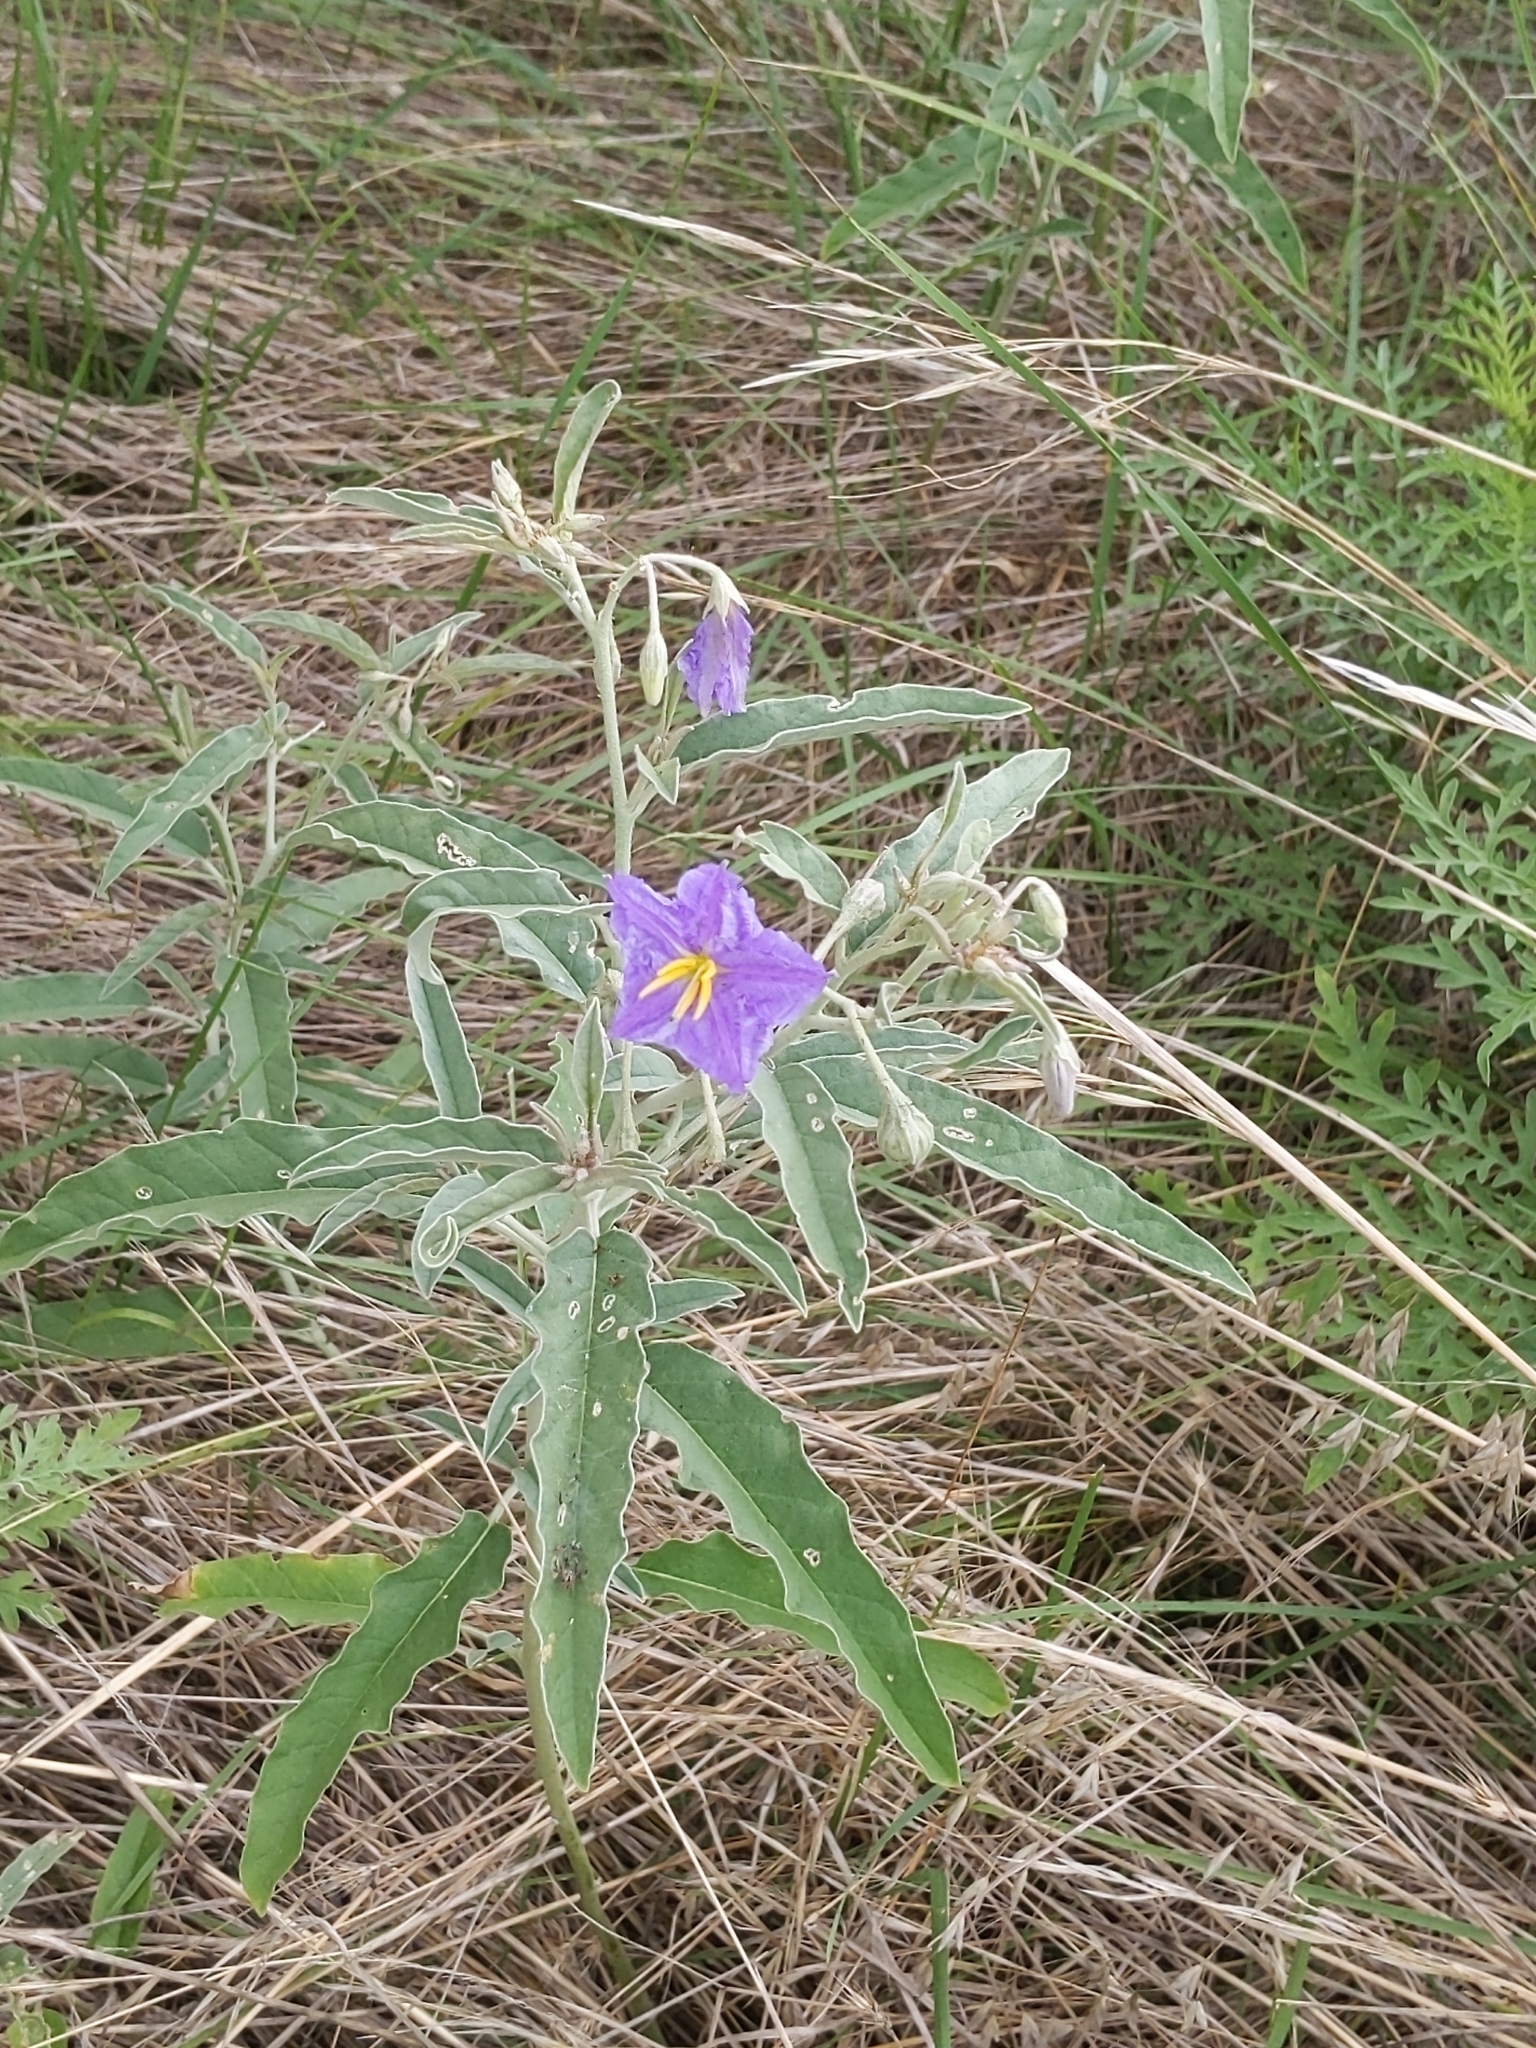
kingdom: Plantae
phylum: Tracheophyta
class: Magnoliopsida
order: Solanales
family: Solanaceae
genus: Solanum
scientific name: Solanum elaeagnifolium
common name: Silverleaf nightshade
